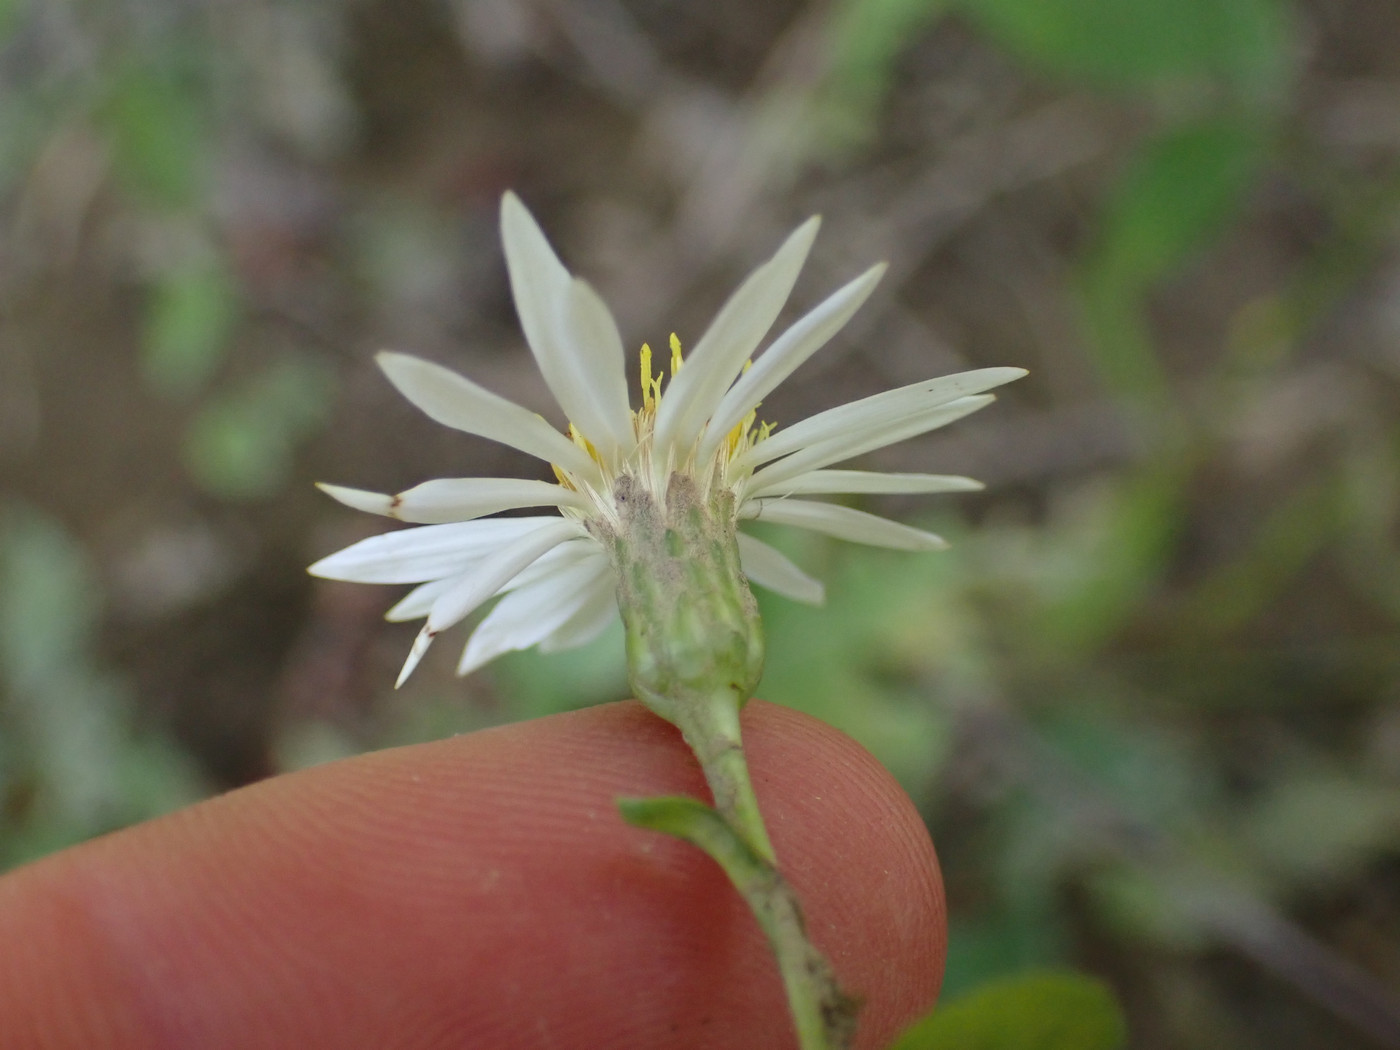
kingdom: Plantae
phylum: Tracheophyta
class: Magnoliopsida
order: Asterales
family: Asteraceae
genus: Eurybia
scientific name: Eurybia saxicastellii
